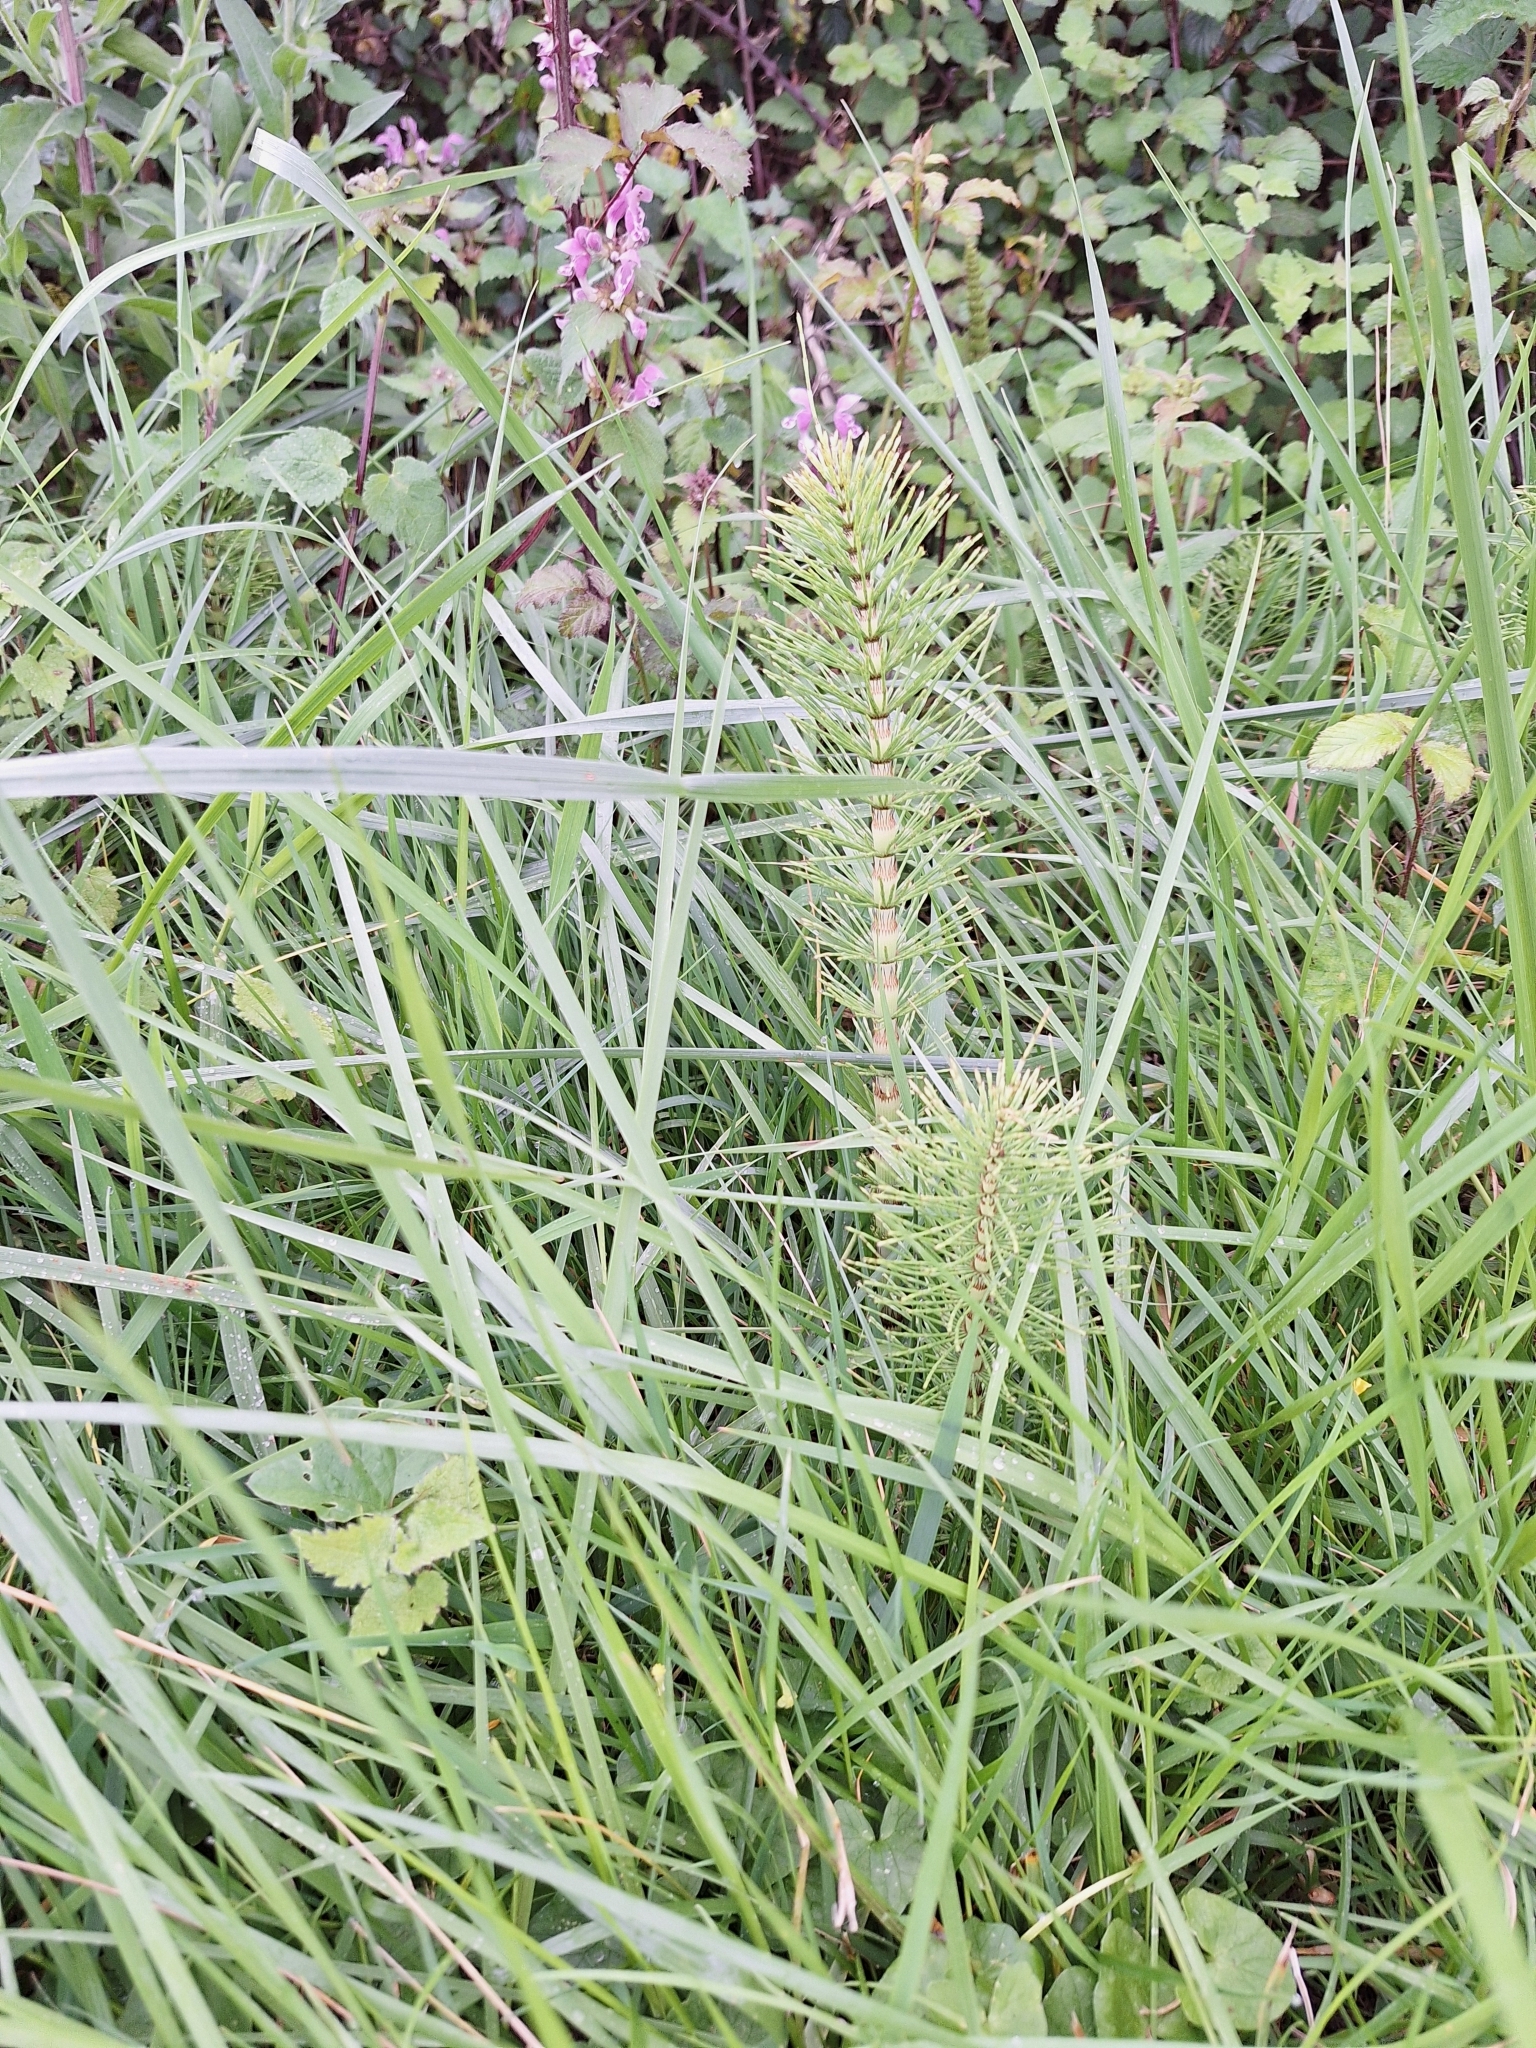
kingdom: Plantae
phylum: Tracheophyta
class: Polypodiopsida
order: Equisetales
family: Equisetaceae
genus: Equisetum
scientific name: Equisetum telmateia
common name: Great horsetail
